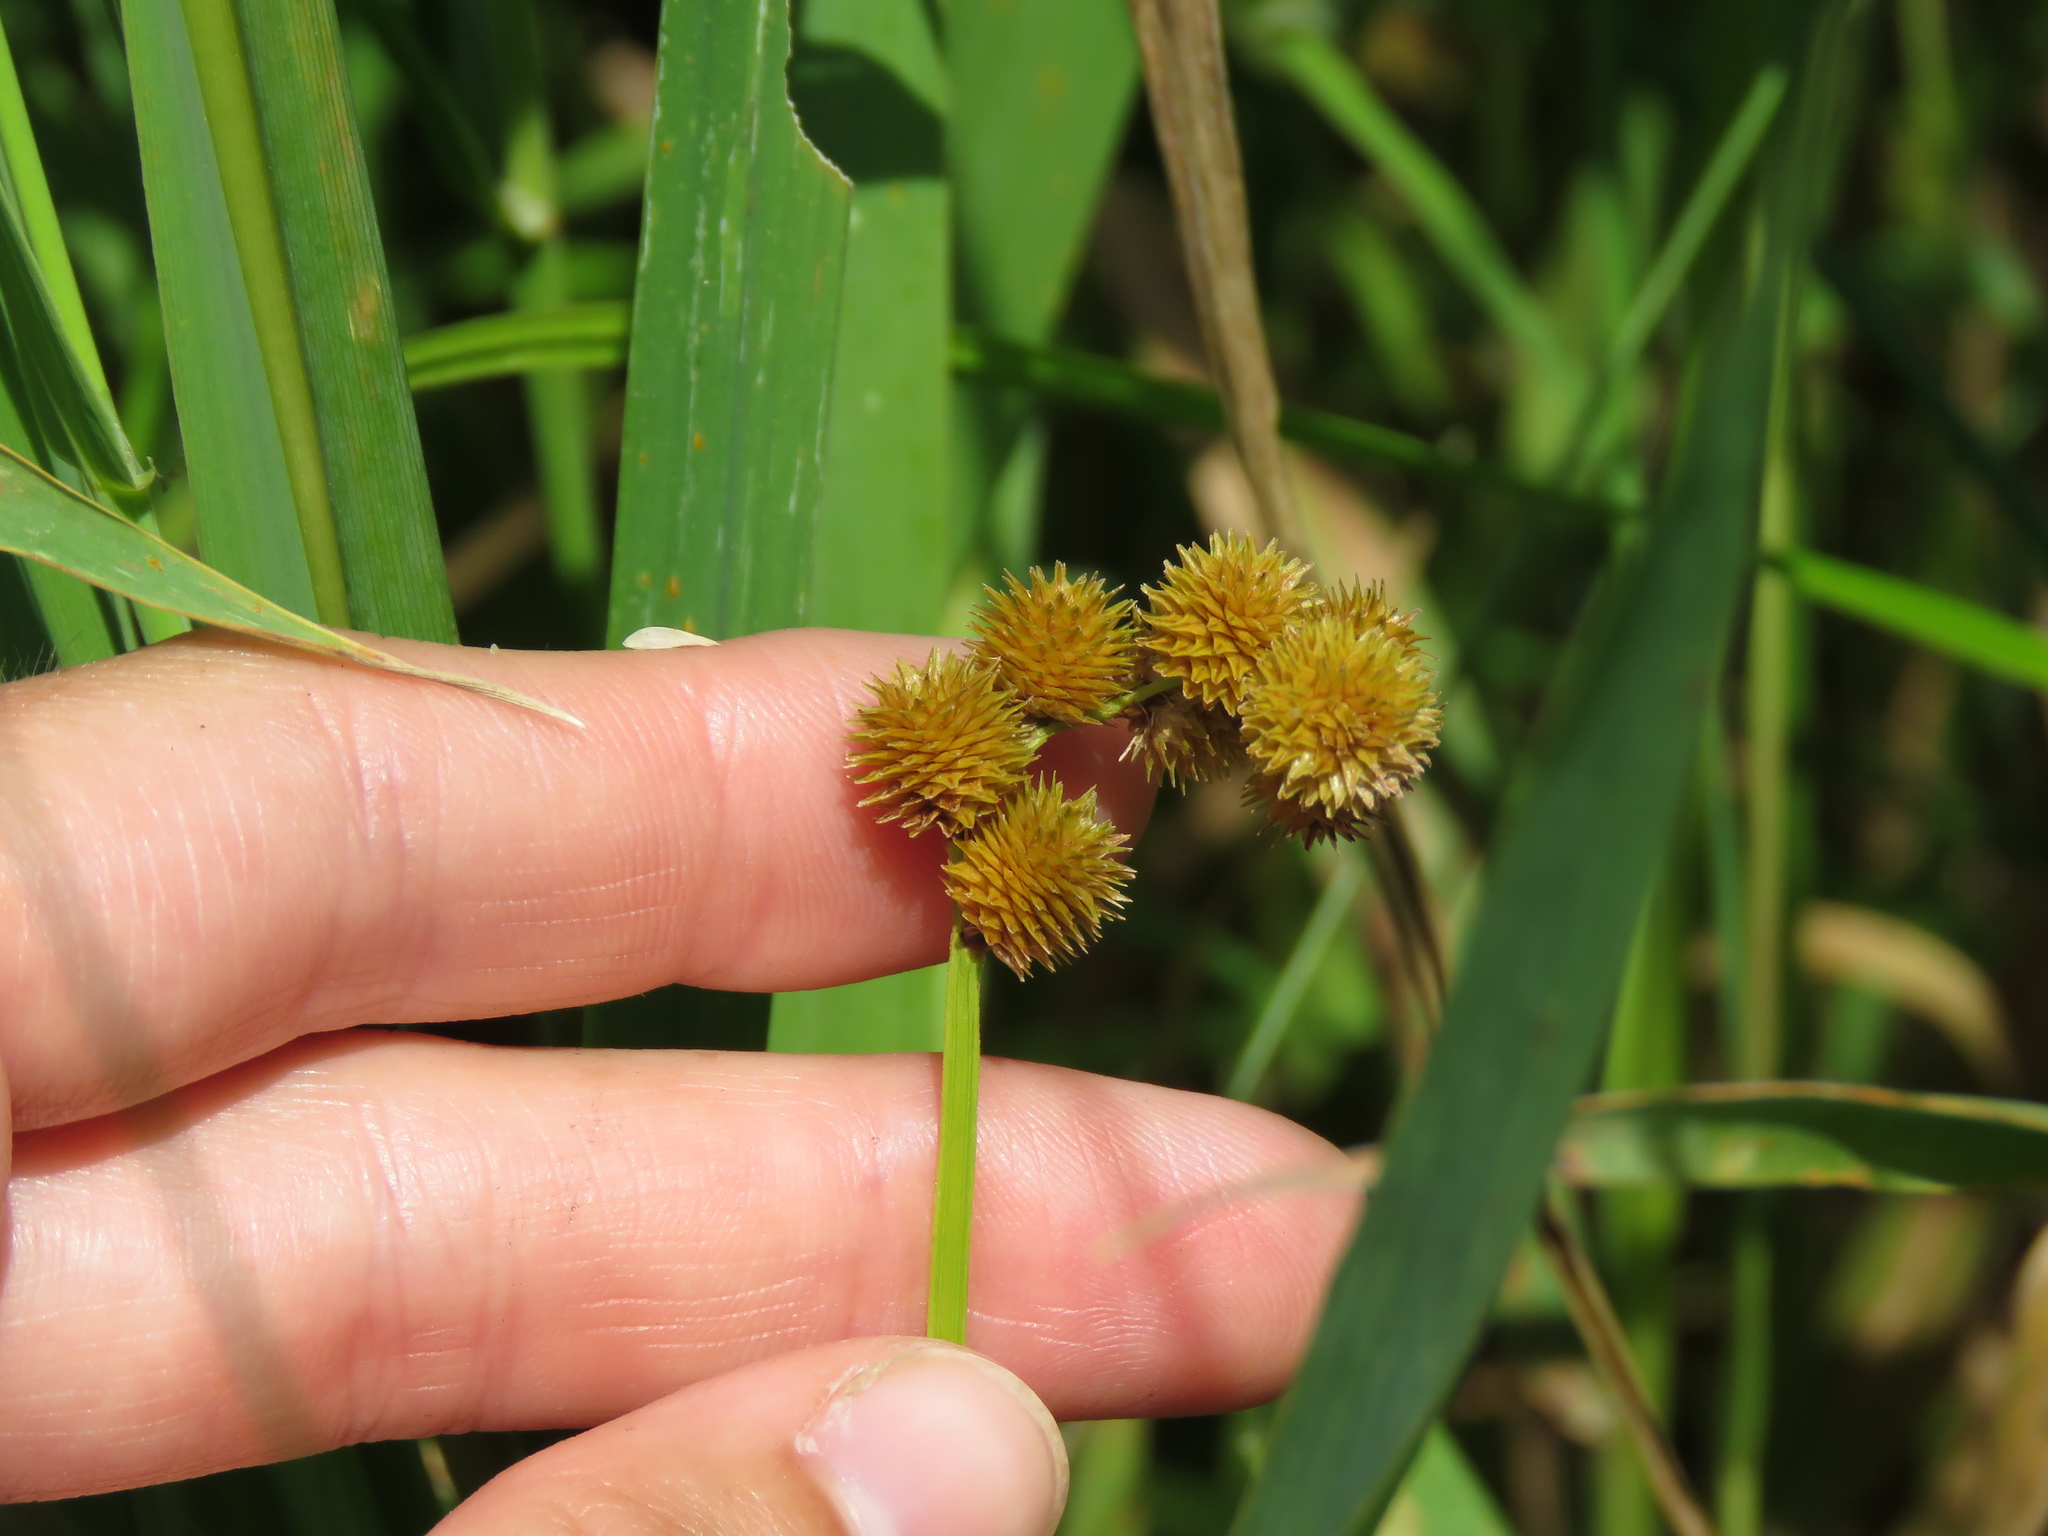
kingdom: Plantae
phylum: Tracheophyta
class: Liliopsida
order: Poales
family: Cyperaceae
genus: Carex
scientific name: Carex cristatella
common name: Crested oval sedge
